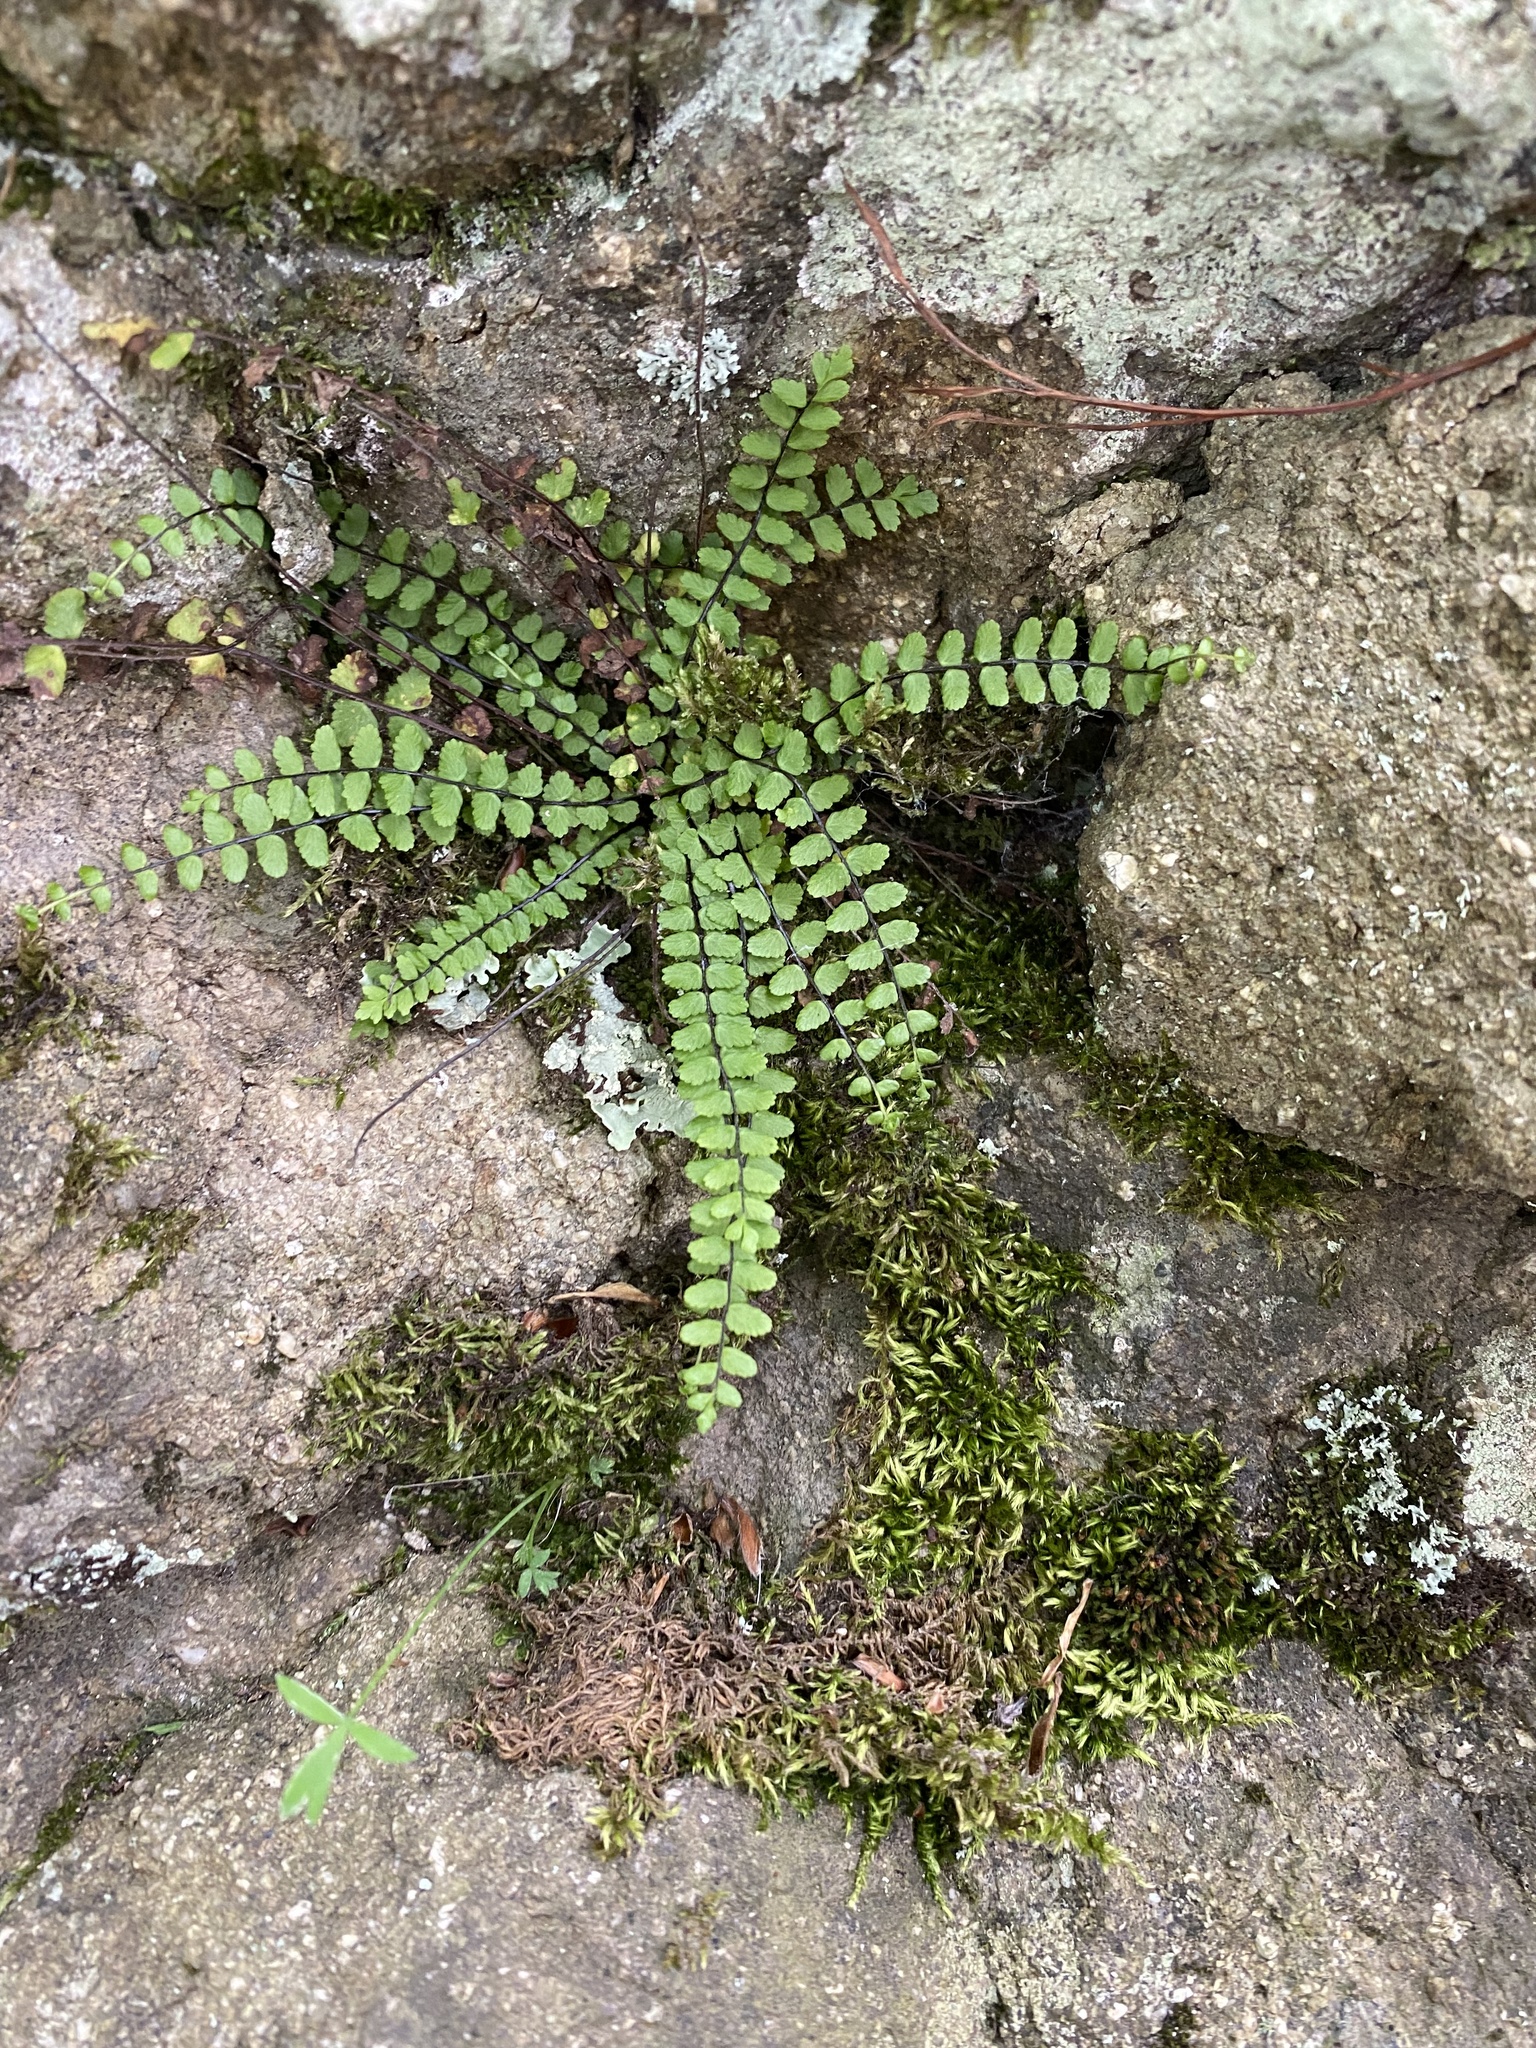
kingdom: Plantae
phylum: Tracheophyta
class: Polypodiopsida
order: Polypodiales
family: Aspleniaceae
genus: Asplenium
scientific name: Asplenium trichomanes
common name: Maidenhair spleenwort
